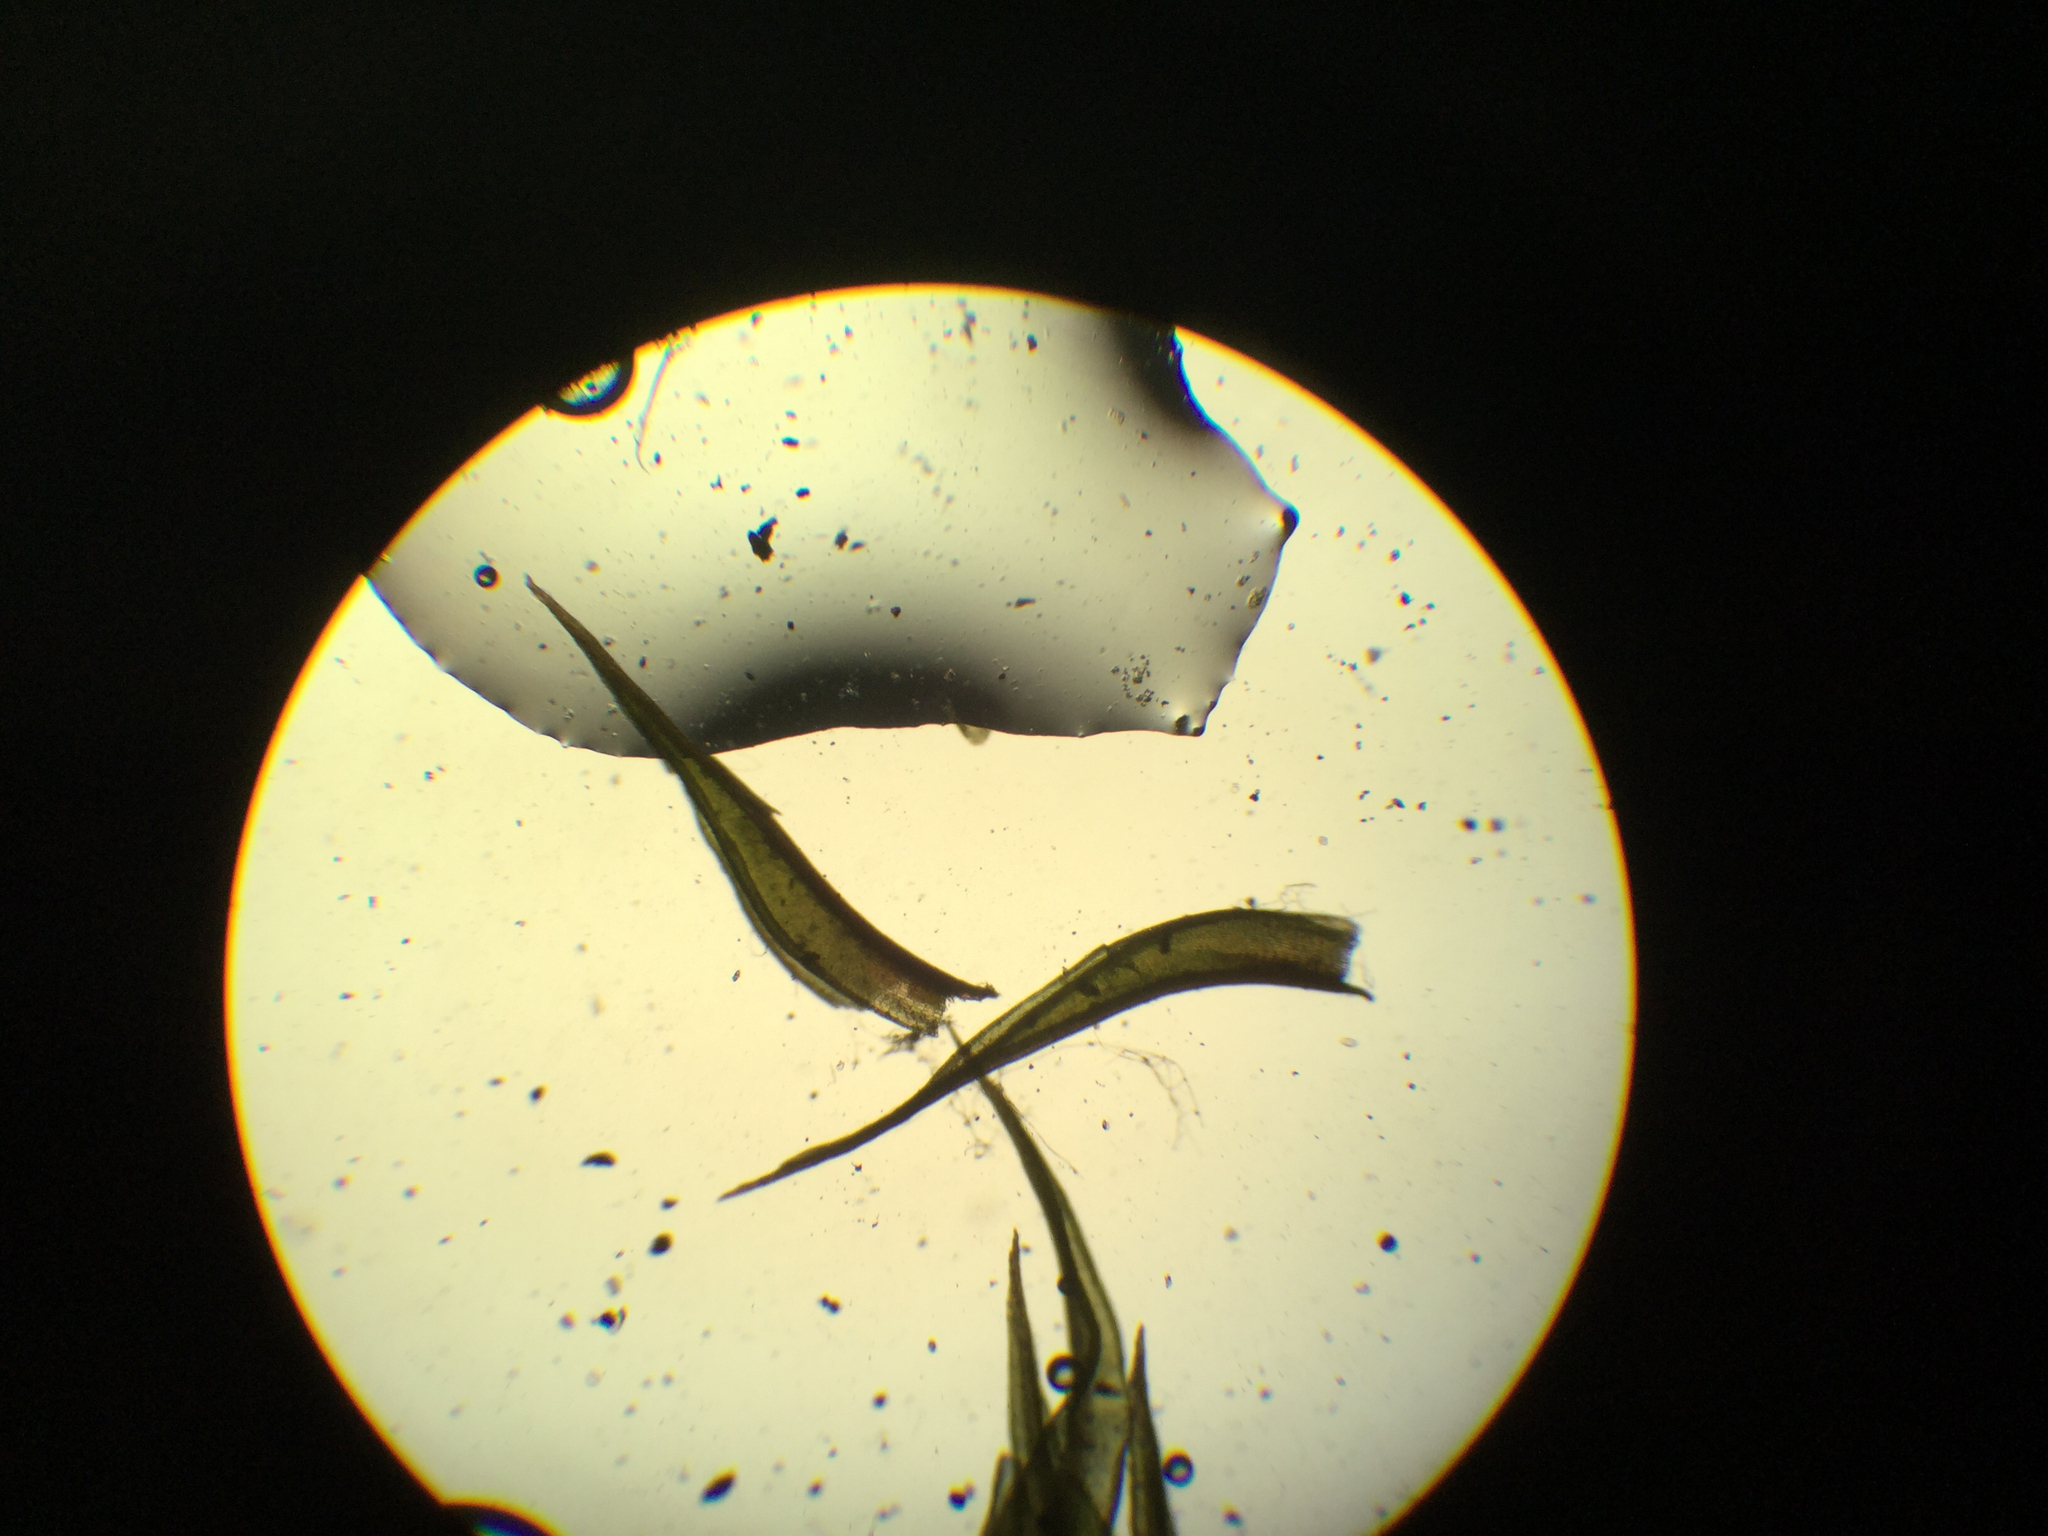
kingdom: Plantae
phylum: Bryophyta
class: Bryopsida
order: Dicranales
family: Ditrichaceae
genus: Ceratodon
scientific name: Ceratodon purpureus
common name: Redshank
